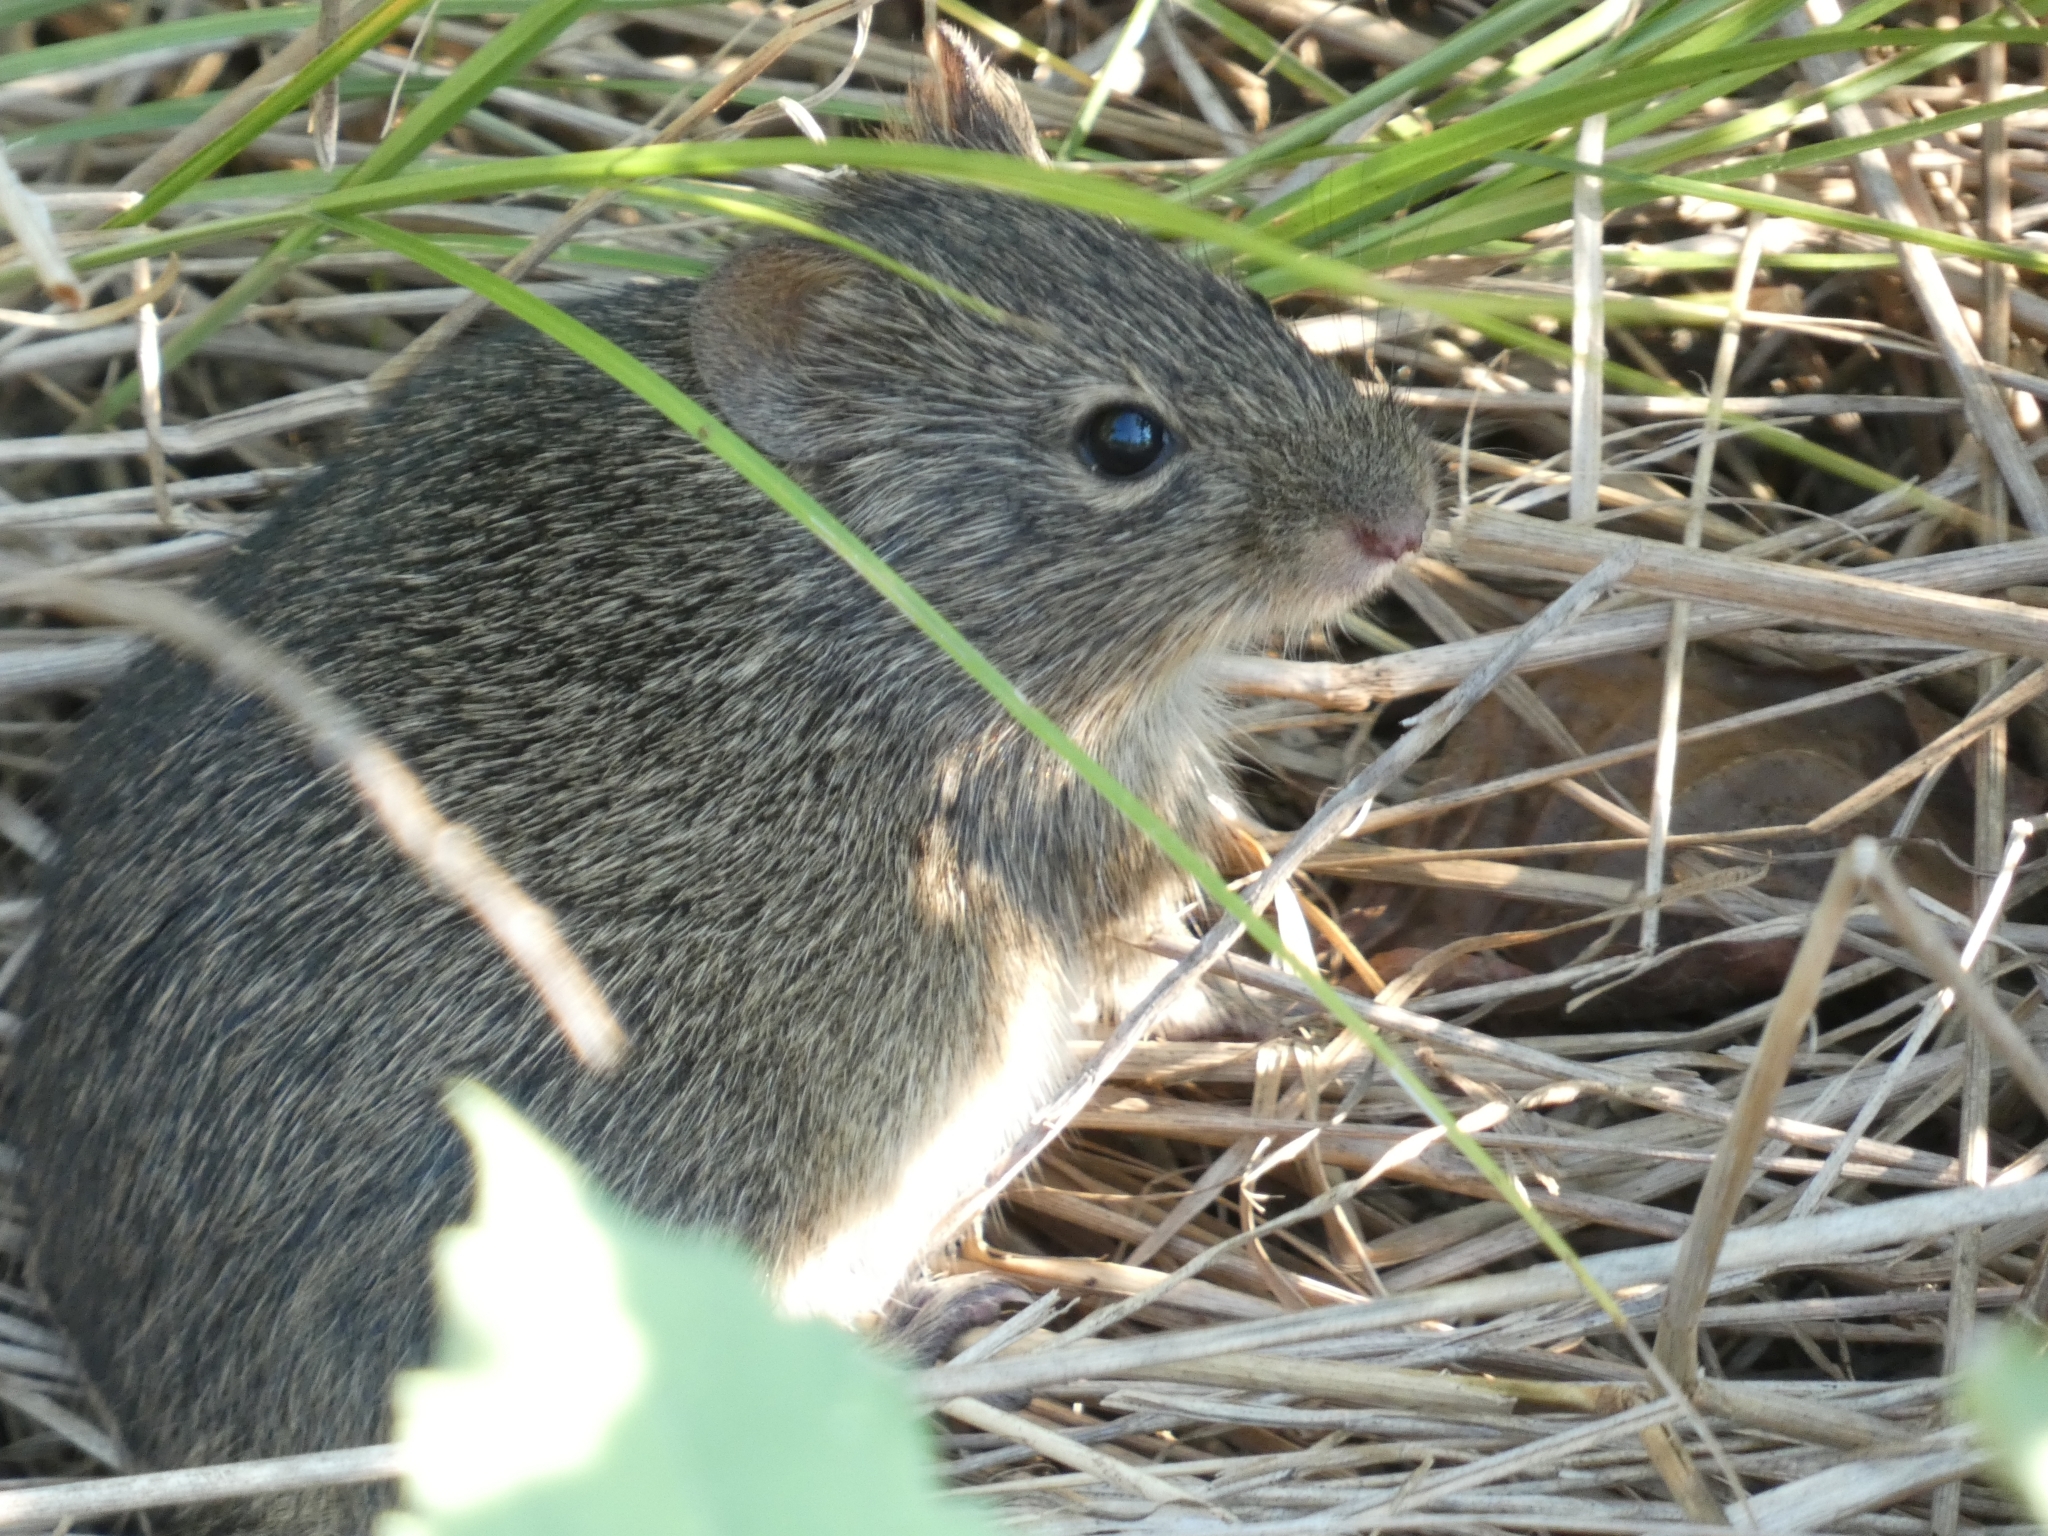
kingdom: Animalia
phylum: Chordata
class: Mammalia
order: Rodentia
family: Cricetidae
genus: Sigmodon
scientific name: Sigmodon hispidus
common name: Hispid cotton rat
